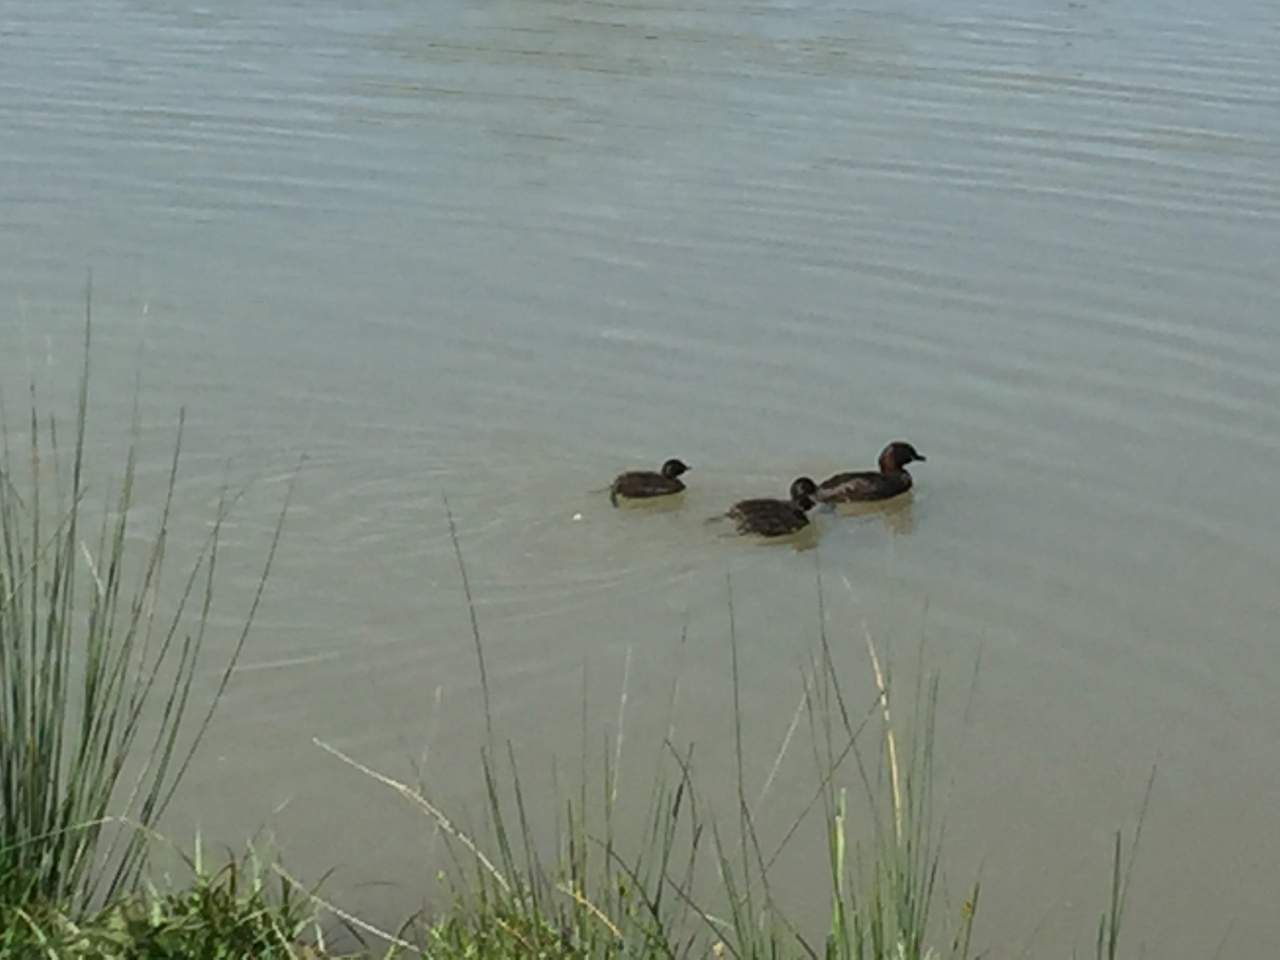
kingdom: Animalia
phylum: Chordata
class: Aves
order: Podicipediformes
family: Podicipedidae
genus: Tachybaptus
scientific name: Tachybaptus ruficollis
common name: Little grebe
